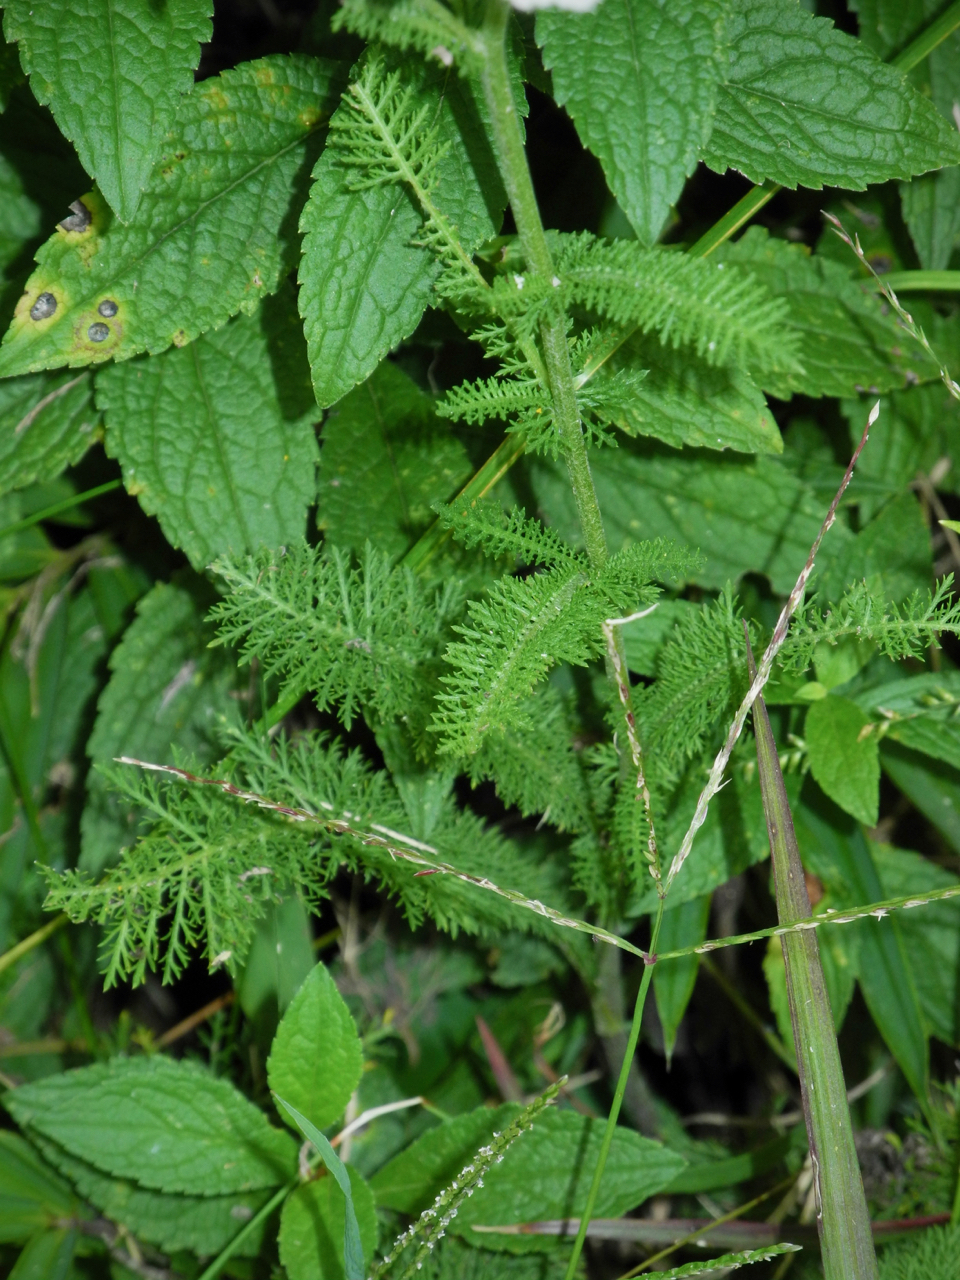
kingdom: Plantae
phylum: Tracheophyta
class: Magnoliopsida
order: Asterales
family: Asteraceae
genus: Achillea
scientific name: Achillea millefolium
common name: Yarrow
